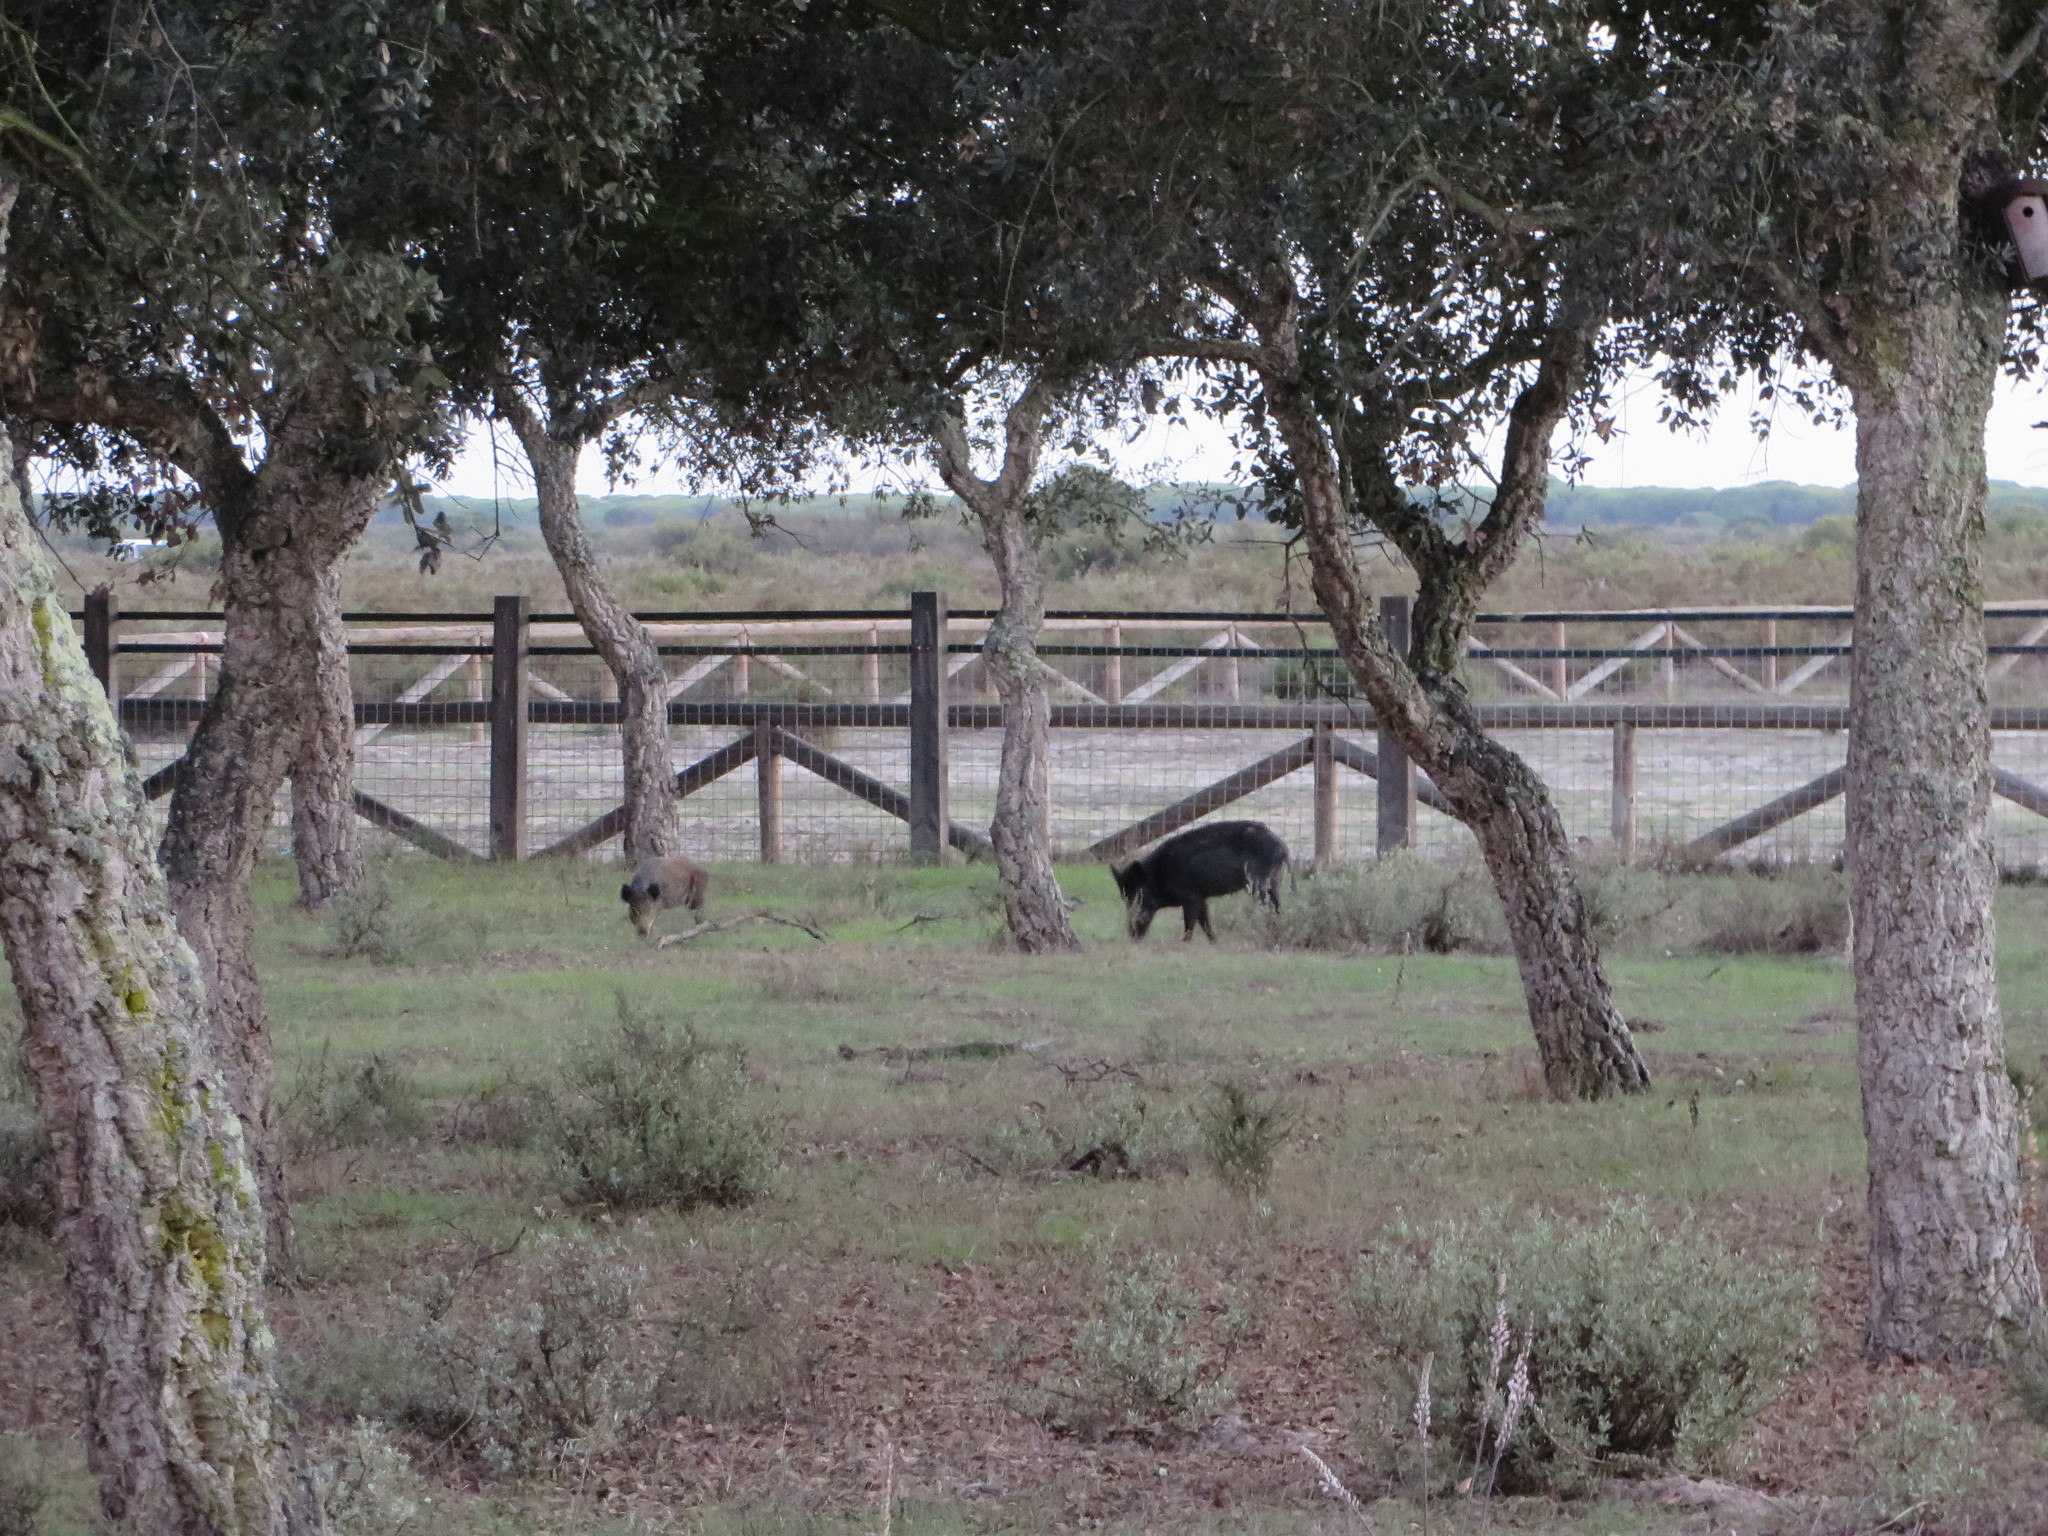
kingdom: Animalia
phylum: Chordata
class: Mammalia
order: Artiodactyla
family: Suidae
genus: Sus
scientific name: Sus scrofa
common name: Wild boar
